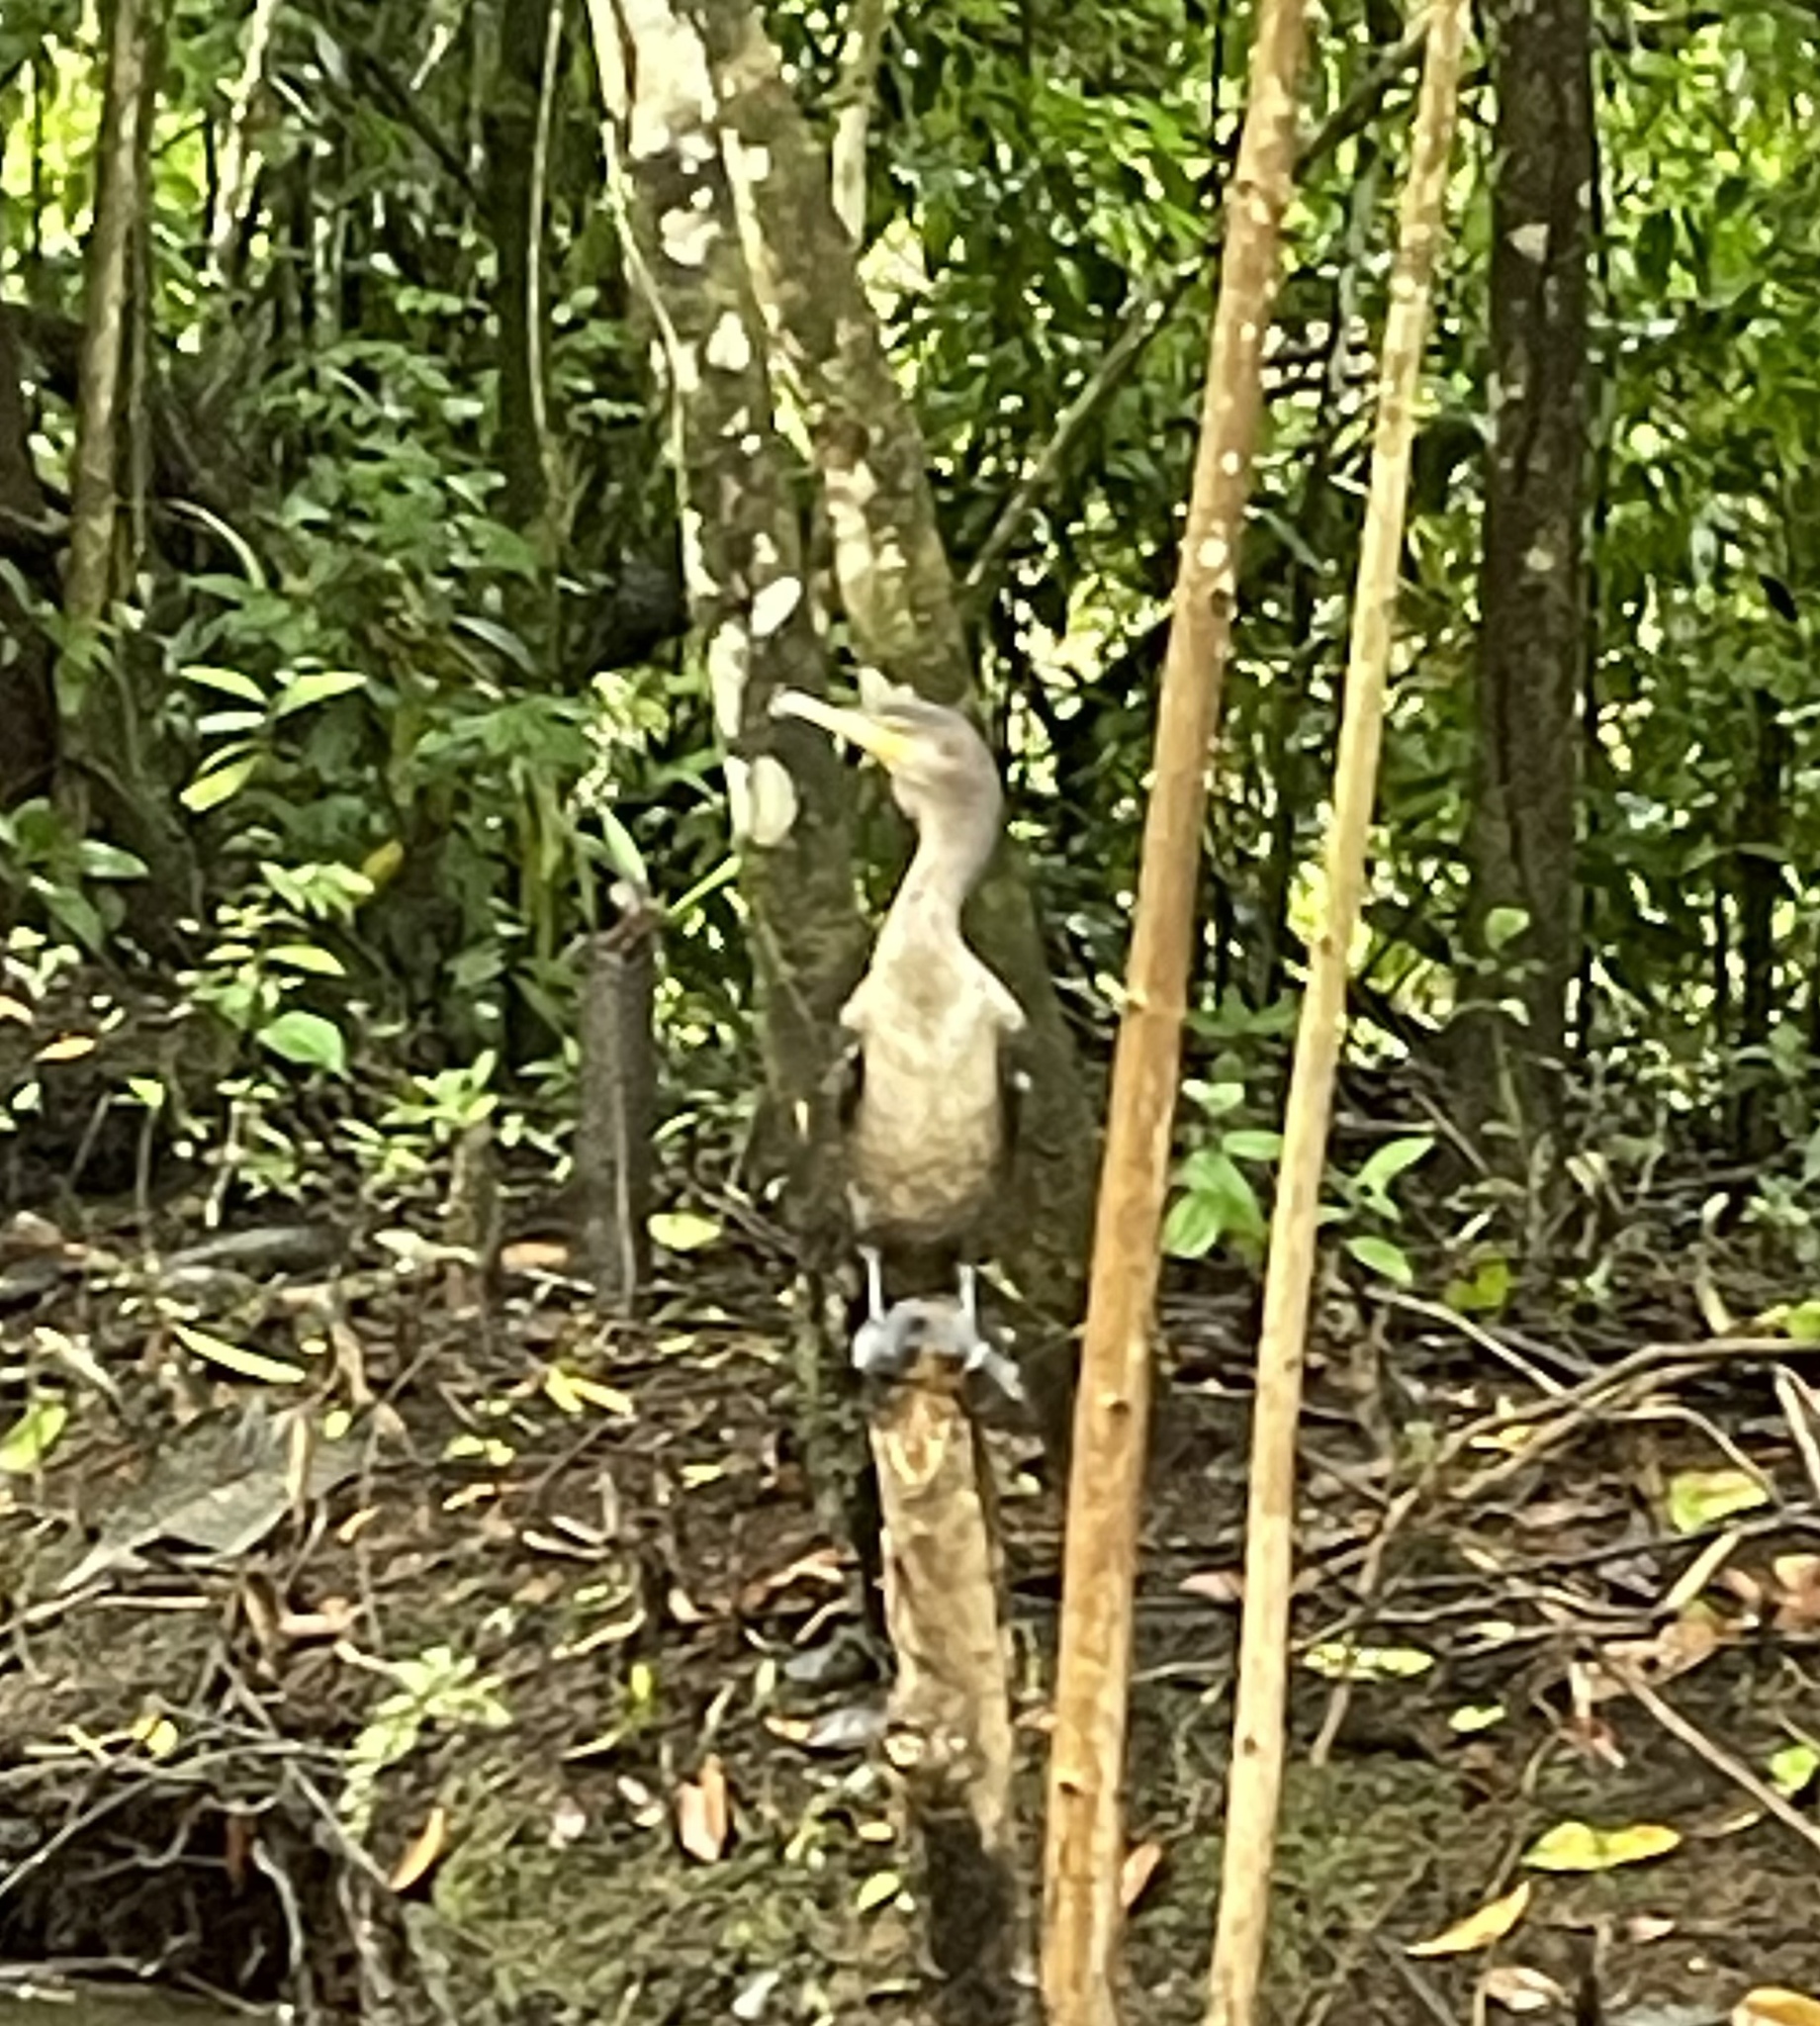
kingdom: Animalia
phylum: Chordata
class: Aves
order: Suliformes
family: Phalacrocoracidae
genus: Phalacrocorax
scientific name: Phalacrocorax brasilianus
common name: Neotropic cormorant
